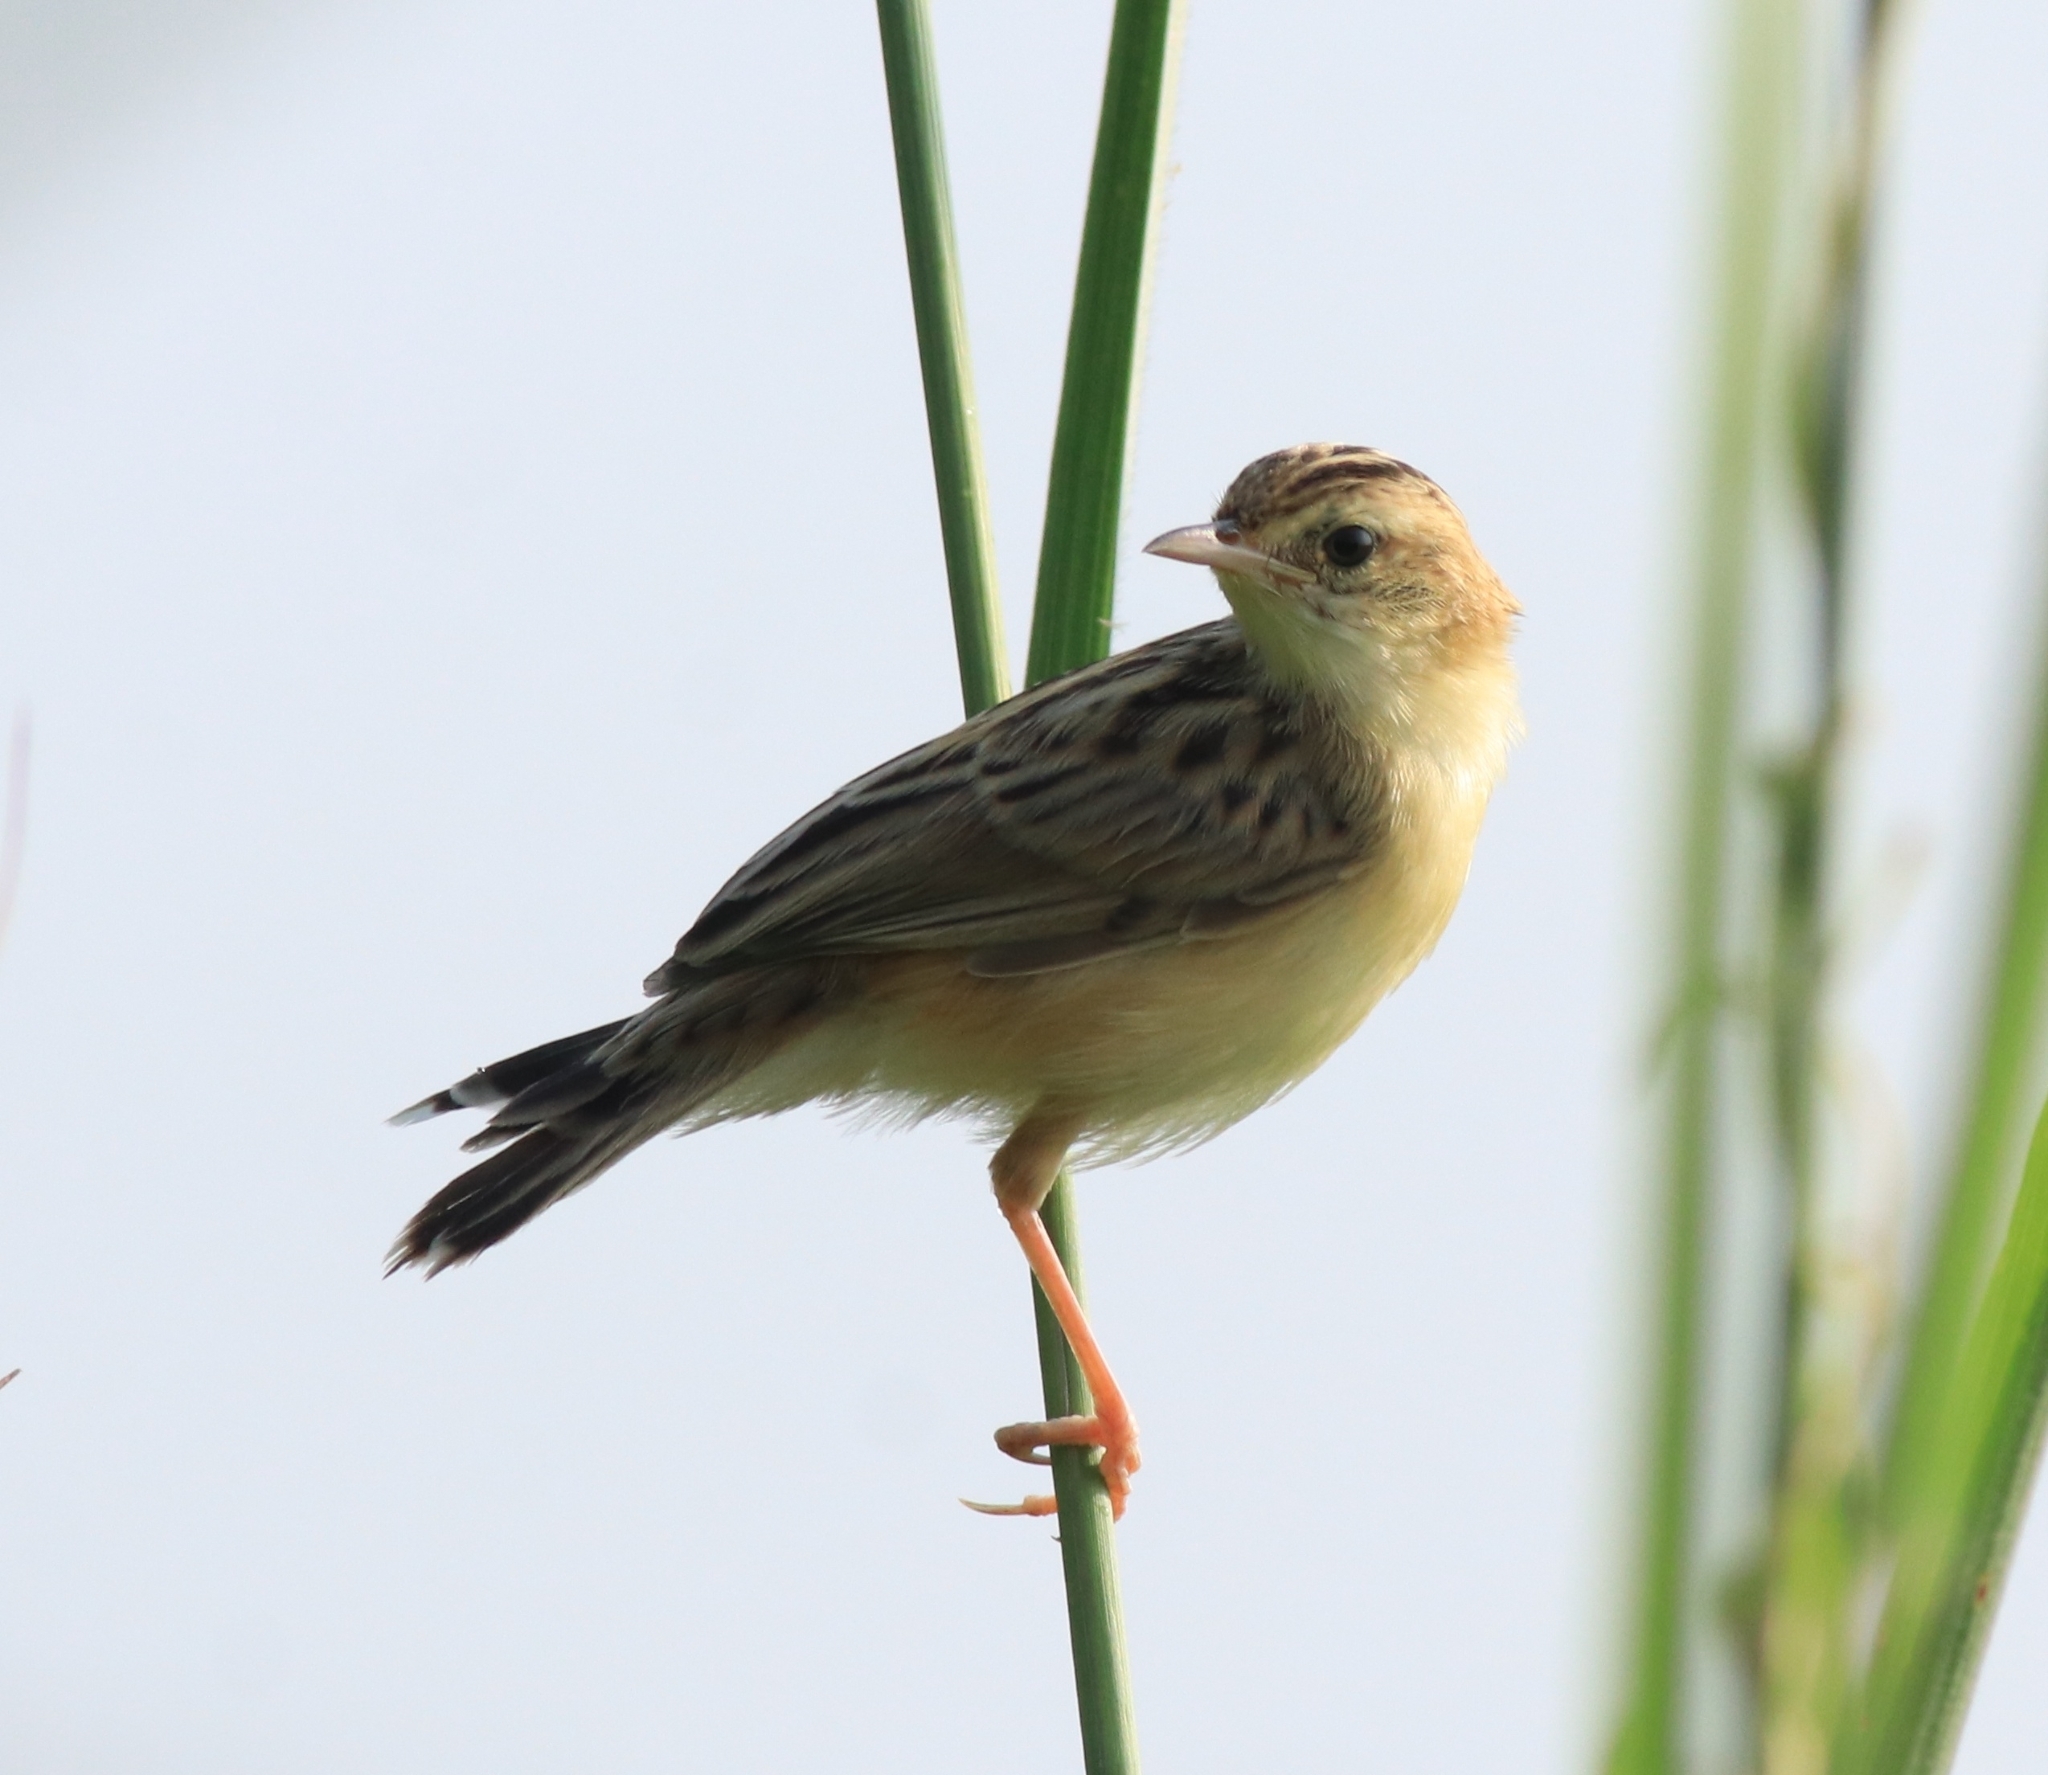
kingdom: Animalia
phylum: Chordata
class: Aves
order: Passeriformes
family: Cisticolidae
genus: Cisticola
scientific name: Cisticola juncidis
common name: Zitting cisticola
